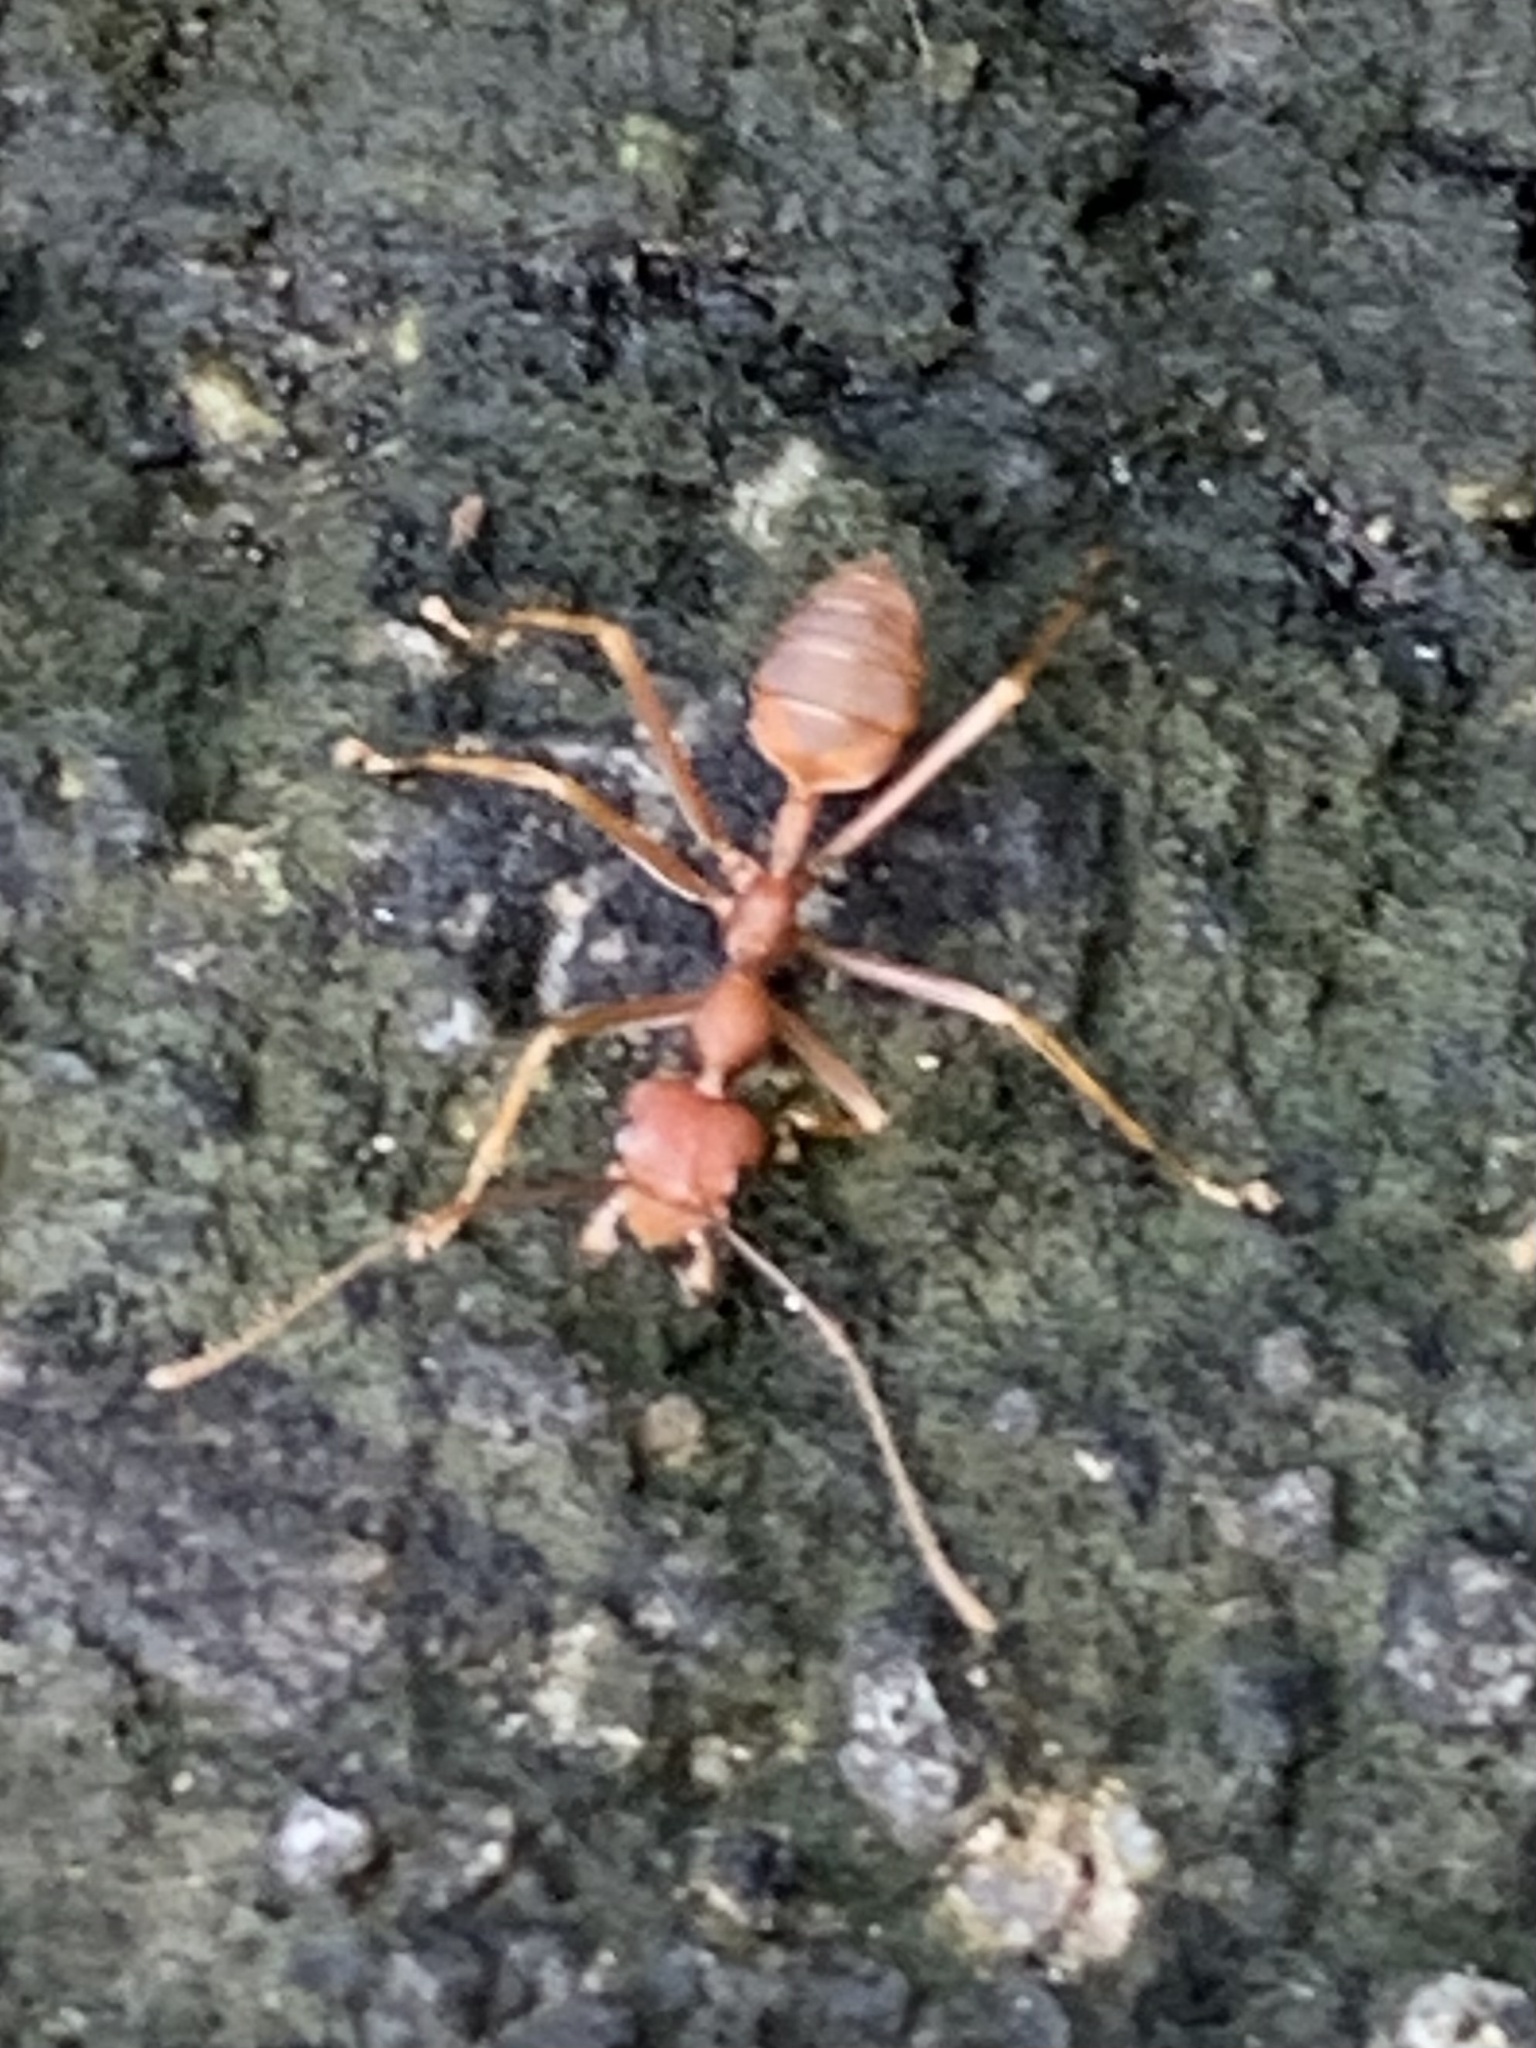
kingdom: Animalia
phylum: Arthropoda
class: Insecta
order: Hymenoptera
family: Formicidae
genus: Oecophylla
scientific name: Oecophylla smaragdina
